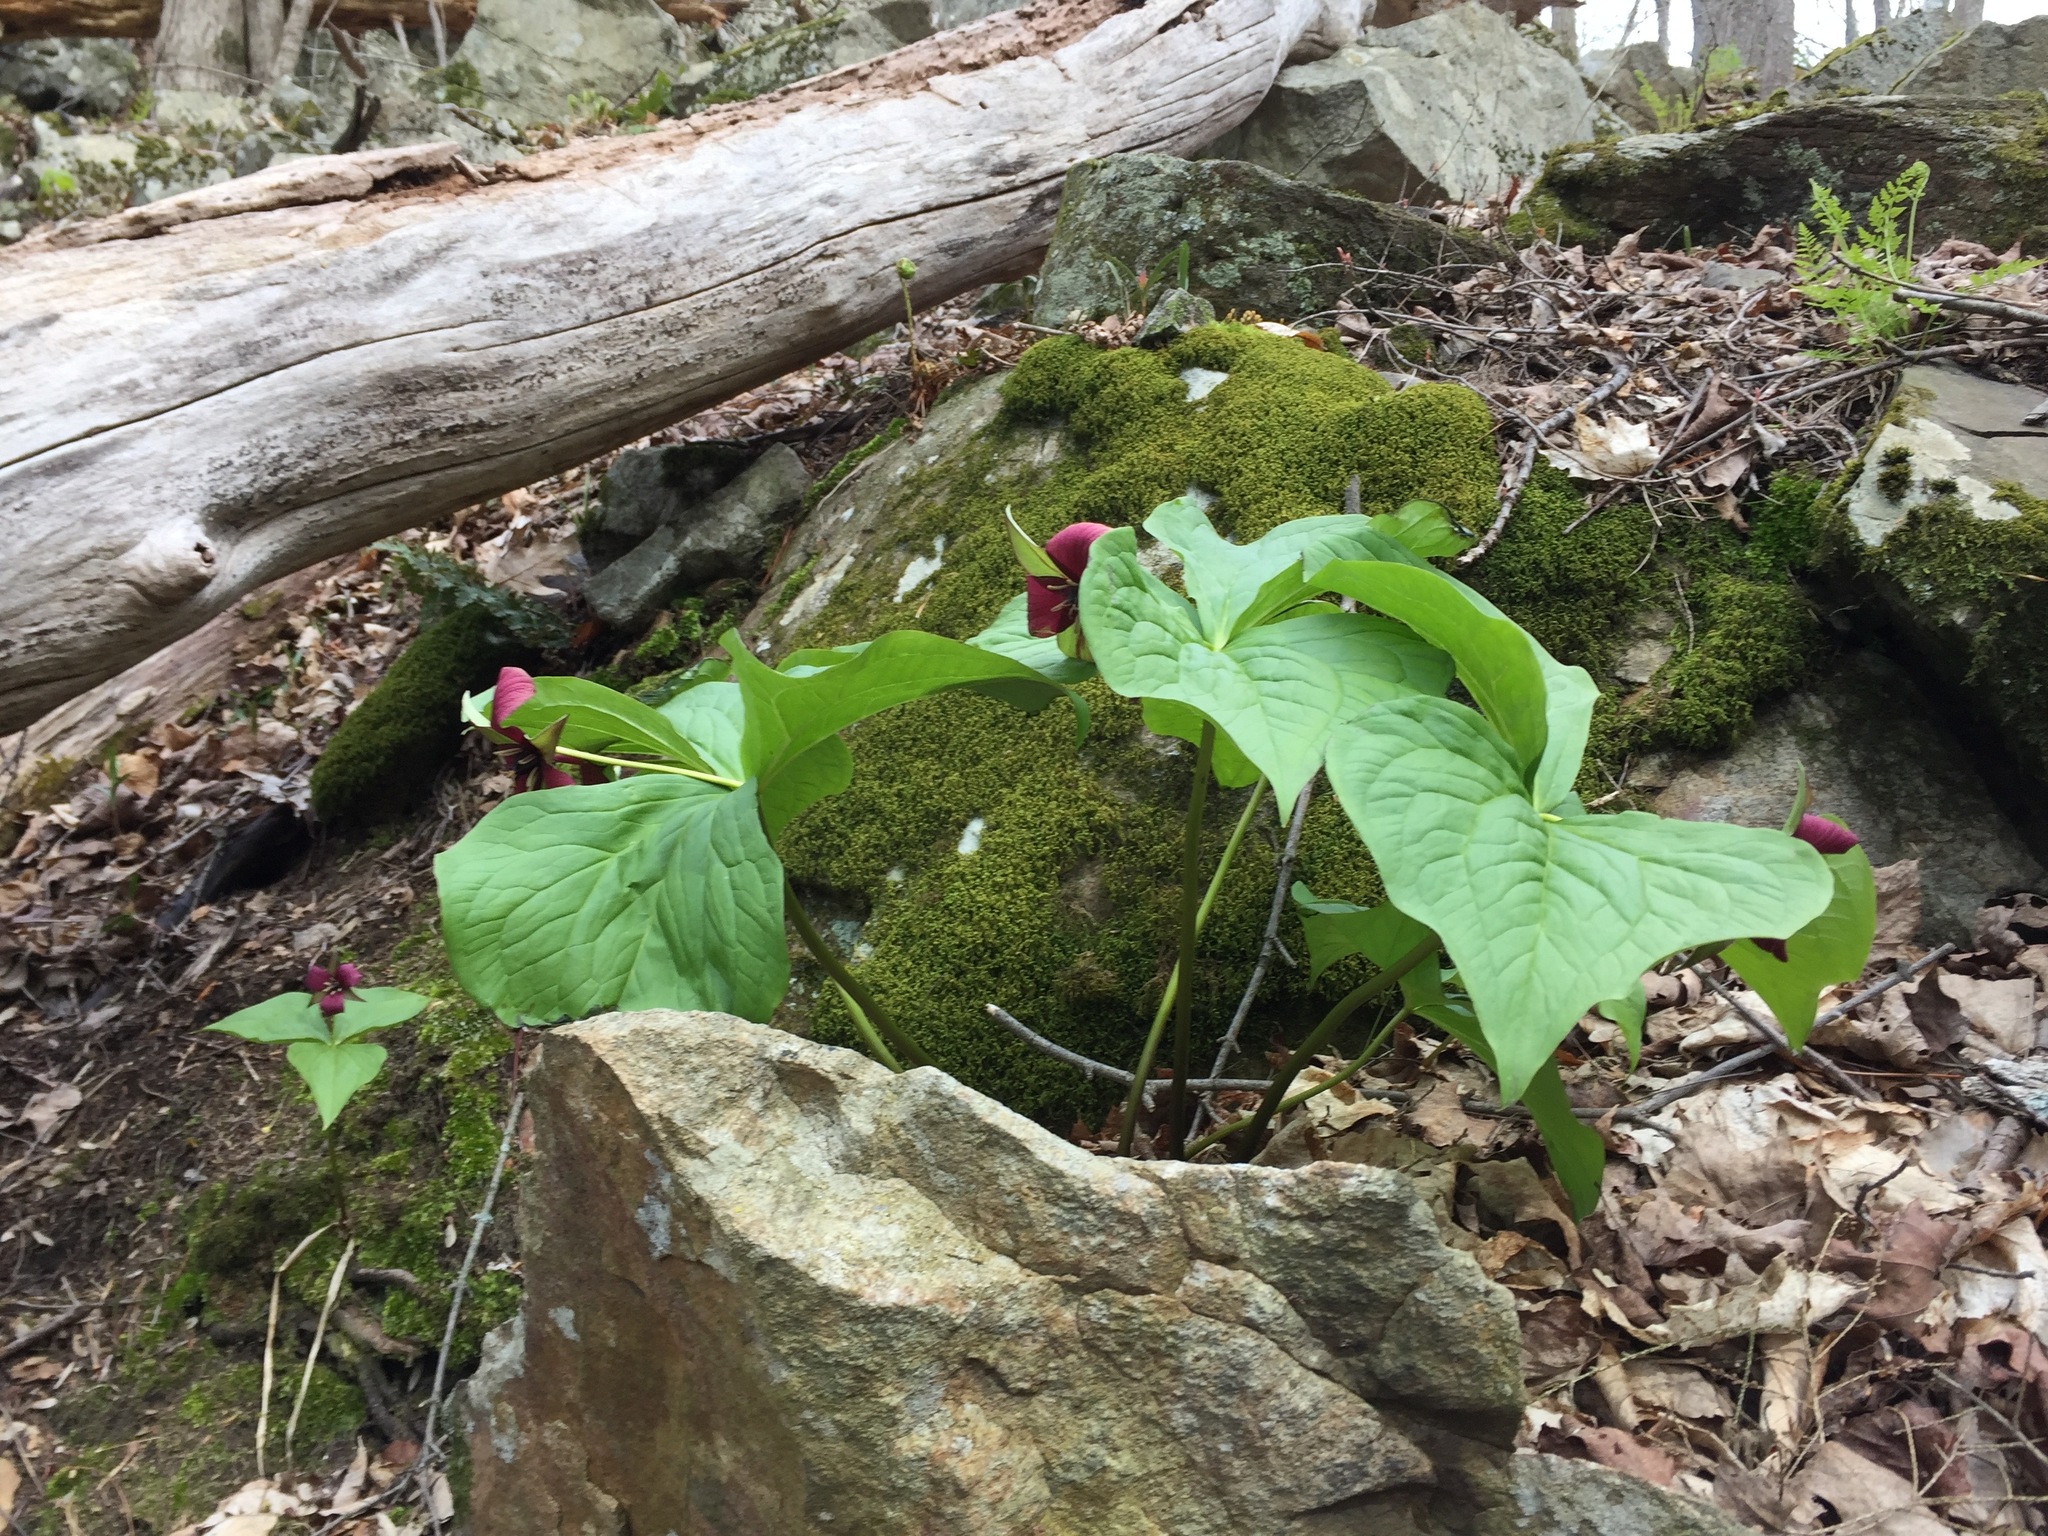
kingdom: Plantae
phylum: Tracheophyta
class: Liliopsida
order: Liliales
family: Melanthiaceae
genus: Trillium
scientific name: Trillium erectum
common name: Purple trillium
